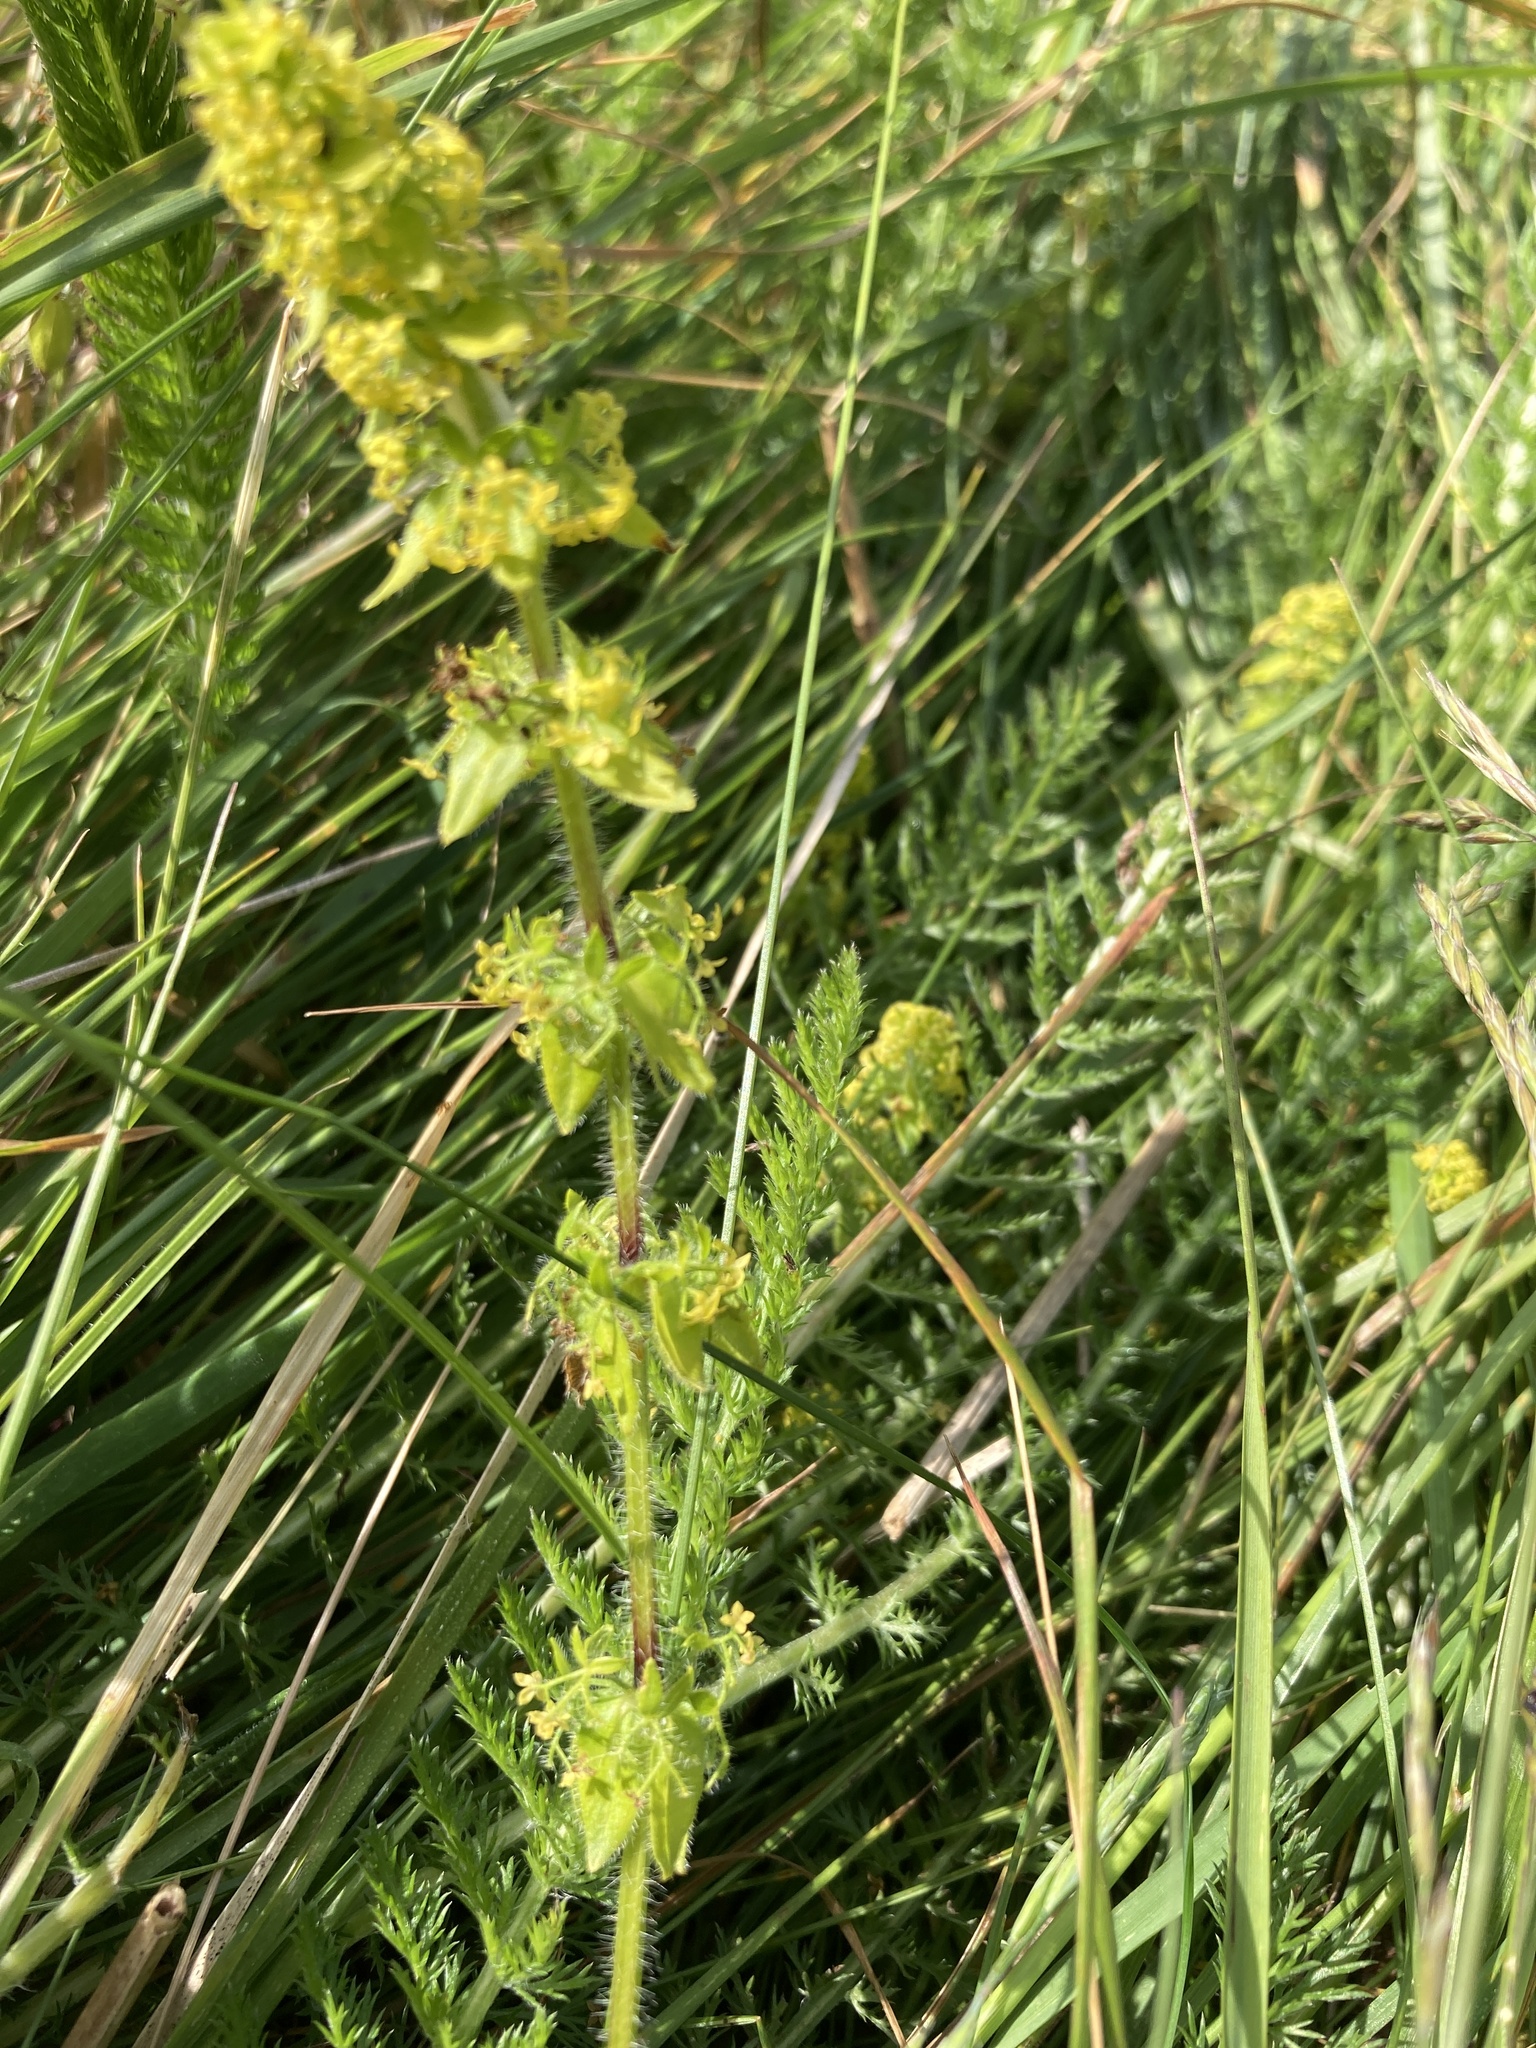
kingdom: Plantae
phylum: Tracheophyta
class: Magnoliopsida
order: Gentianales
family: Rubiaceae
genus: Cruciata
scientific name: Cruciata laevipes
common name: Crosswort
